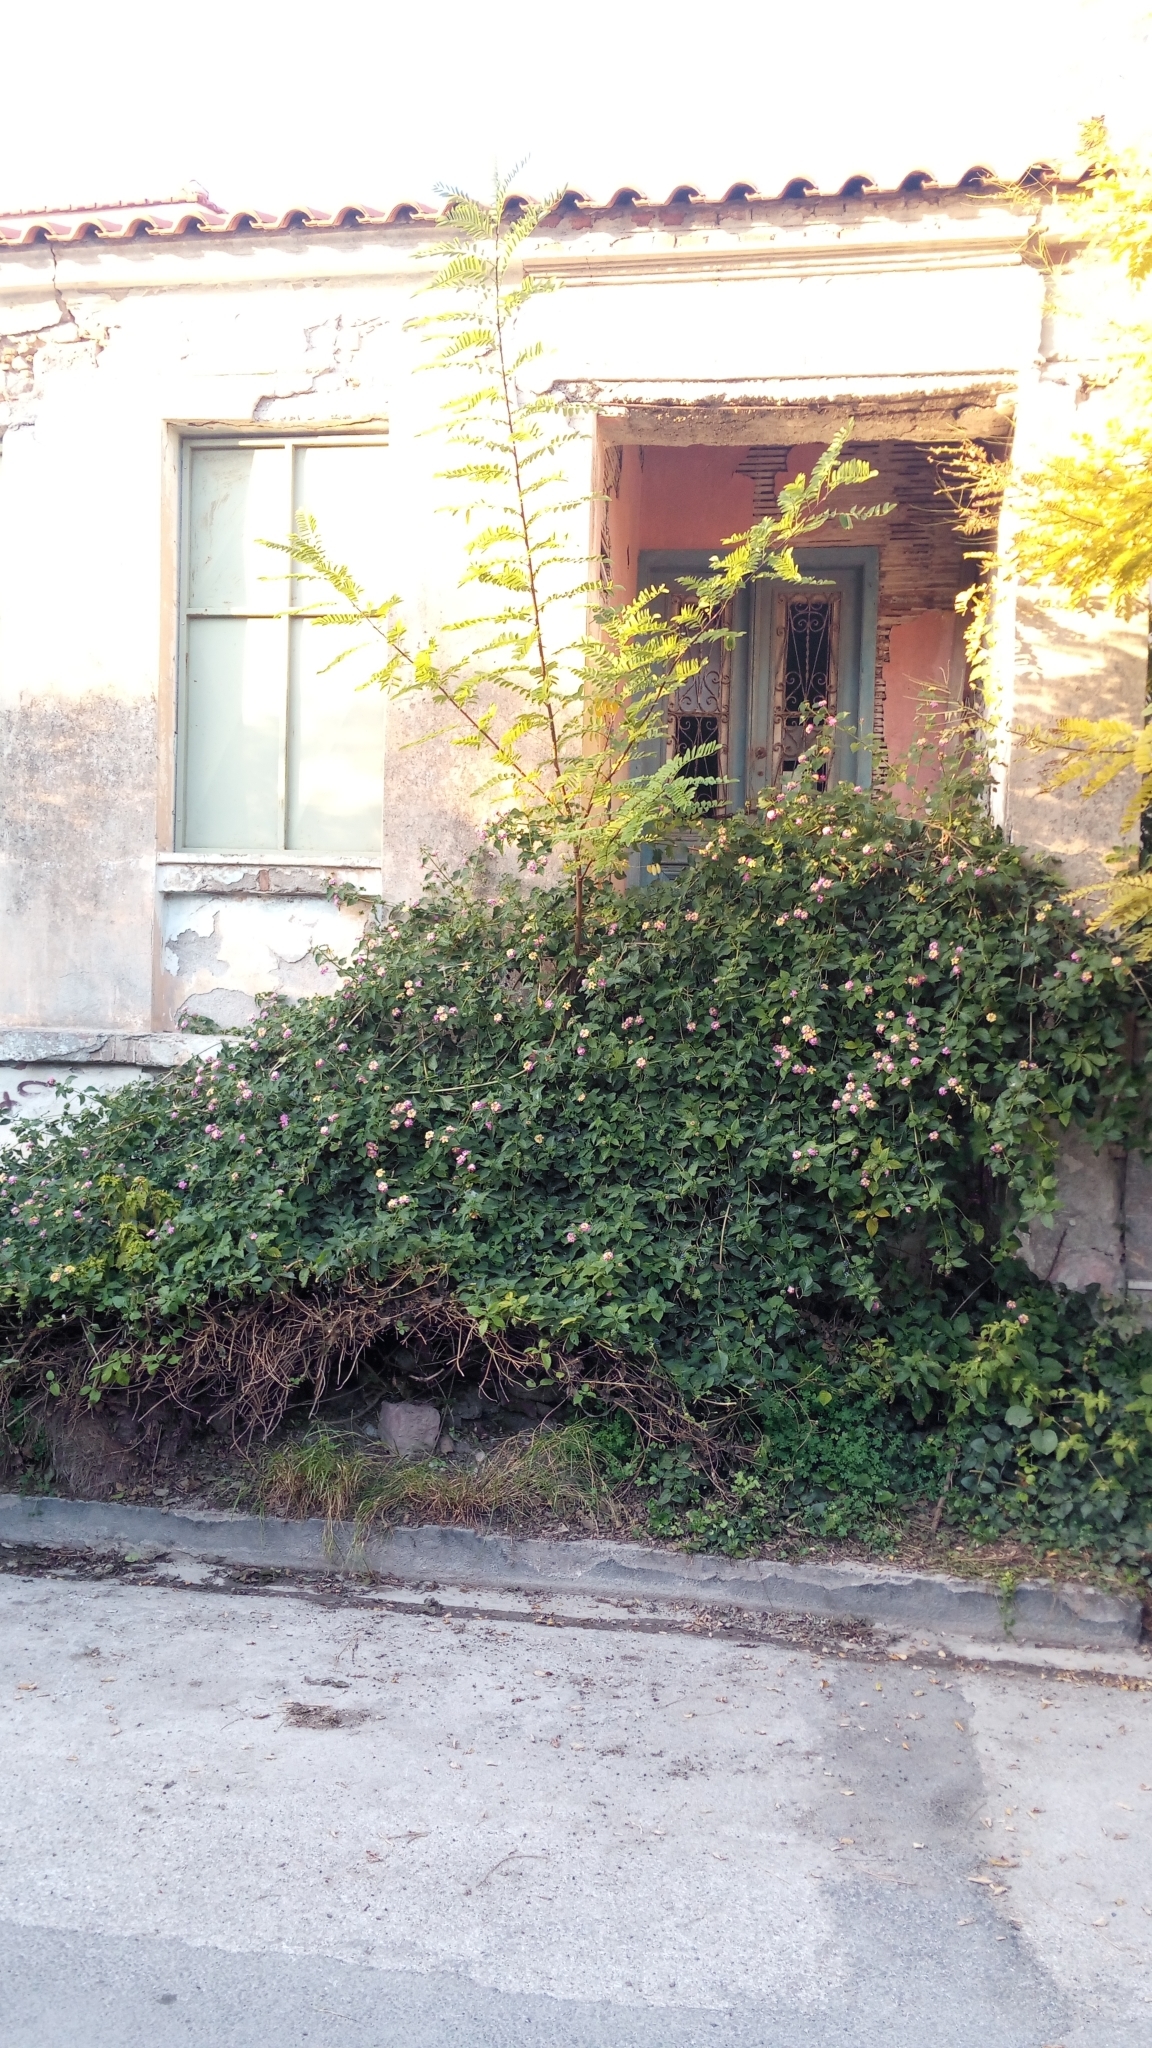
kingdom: Plantae
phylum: Tracheophyta
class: Magnoliopsida
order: Lamiales
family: Verbenaceae
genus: Lantana
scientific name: Lantana camara
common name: Lantana
